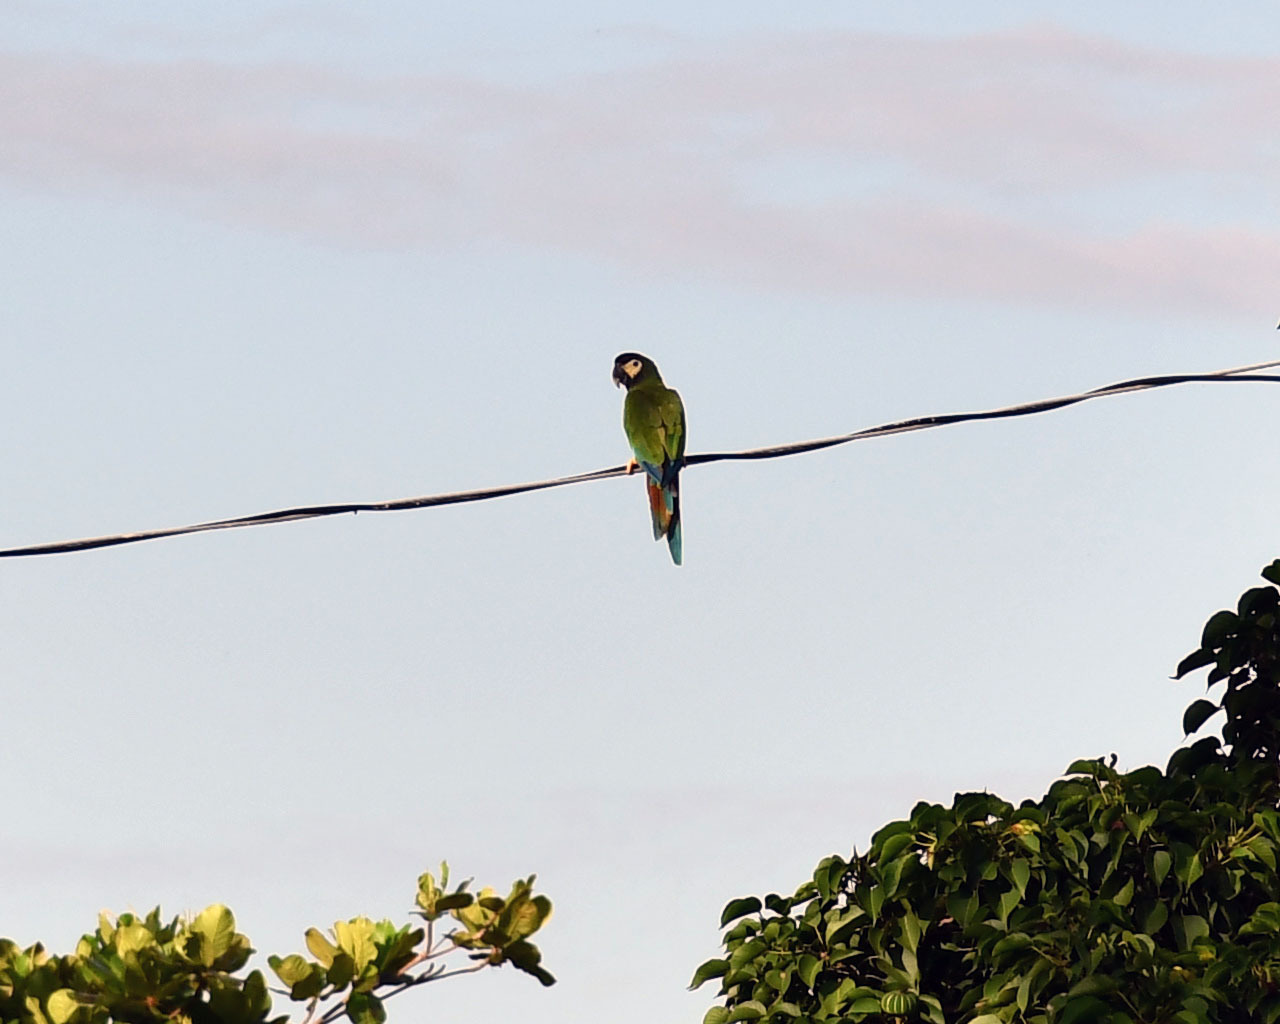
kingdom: Animalia
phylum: Chordata
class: Aves
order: Psittaciformes
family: Psittacidae
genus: Primolius
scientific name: Primolius auricollis
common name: Golden-collared macaw
